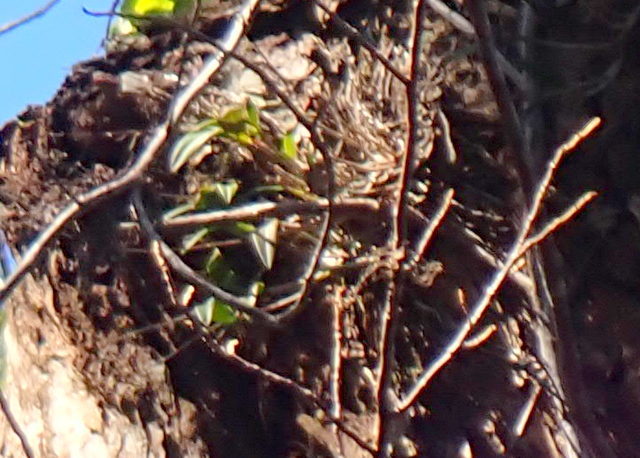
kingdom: Plantae
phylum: Tracheophyta
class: Liliopsida
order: Asparagales
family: Orchidaceae
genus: Epidendrum
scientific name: Epidendrum conopseum
